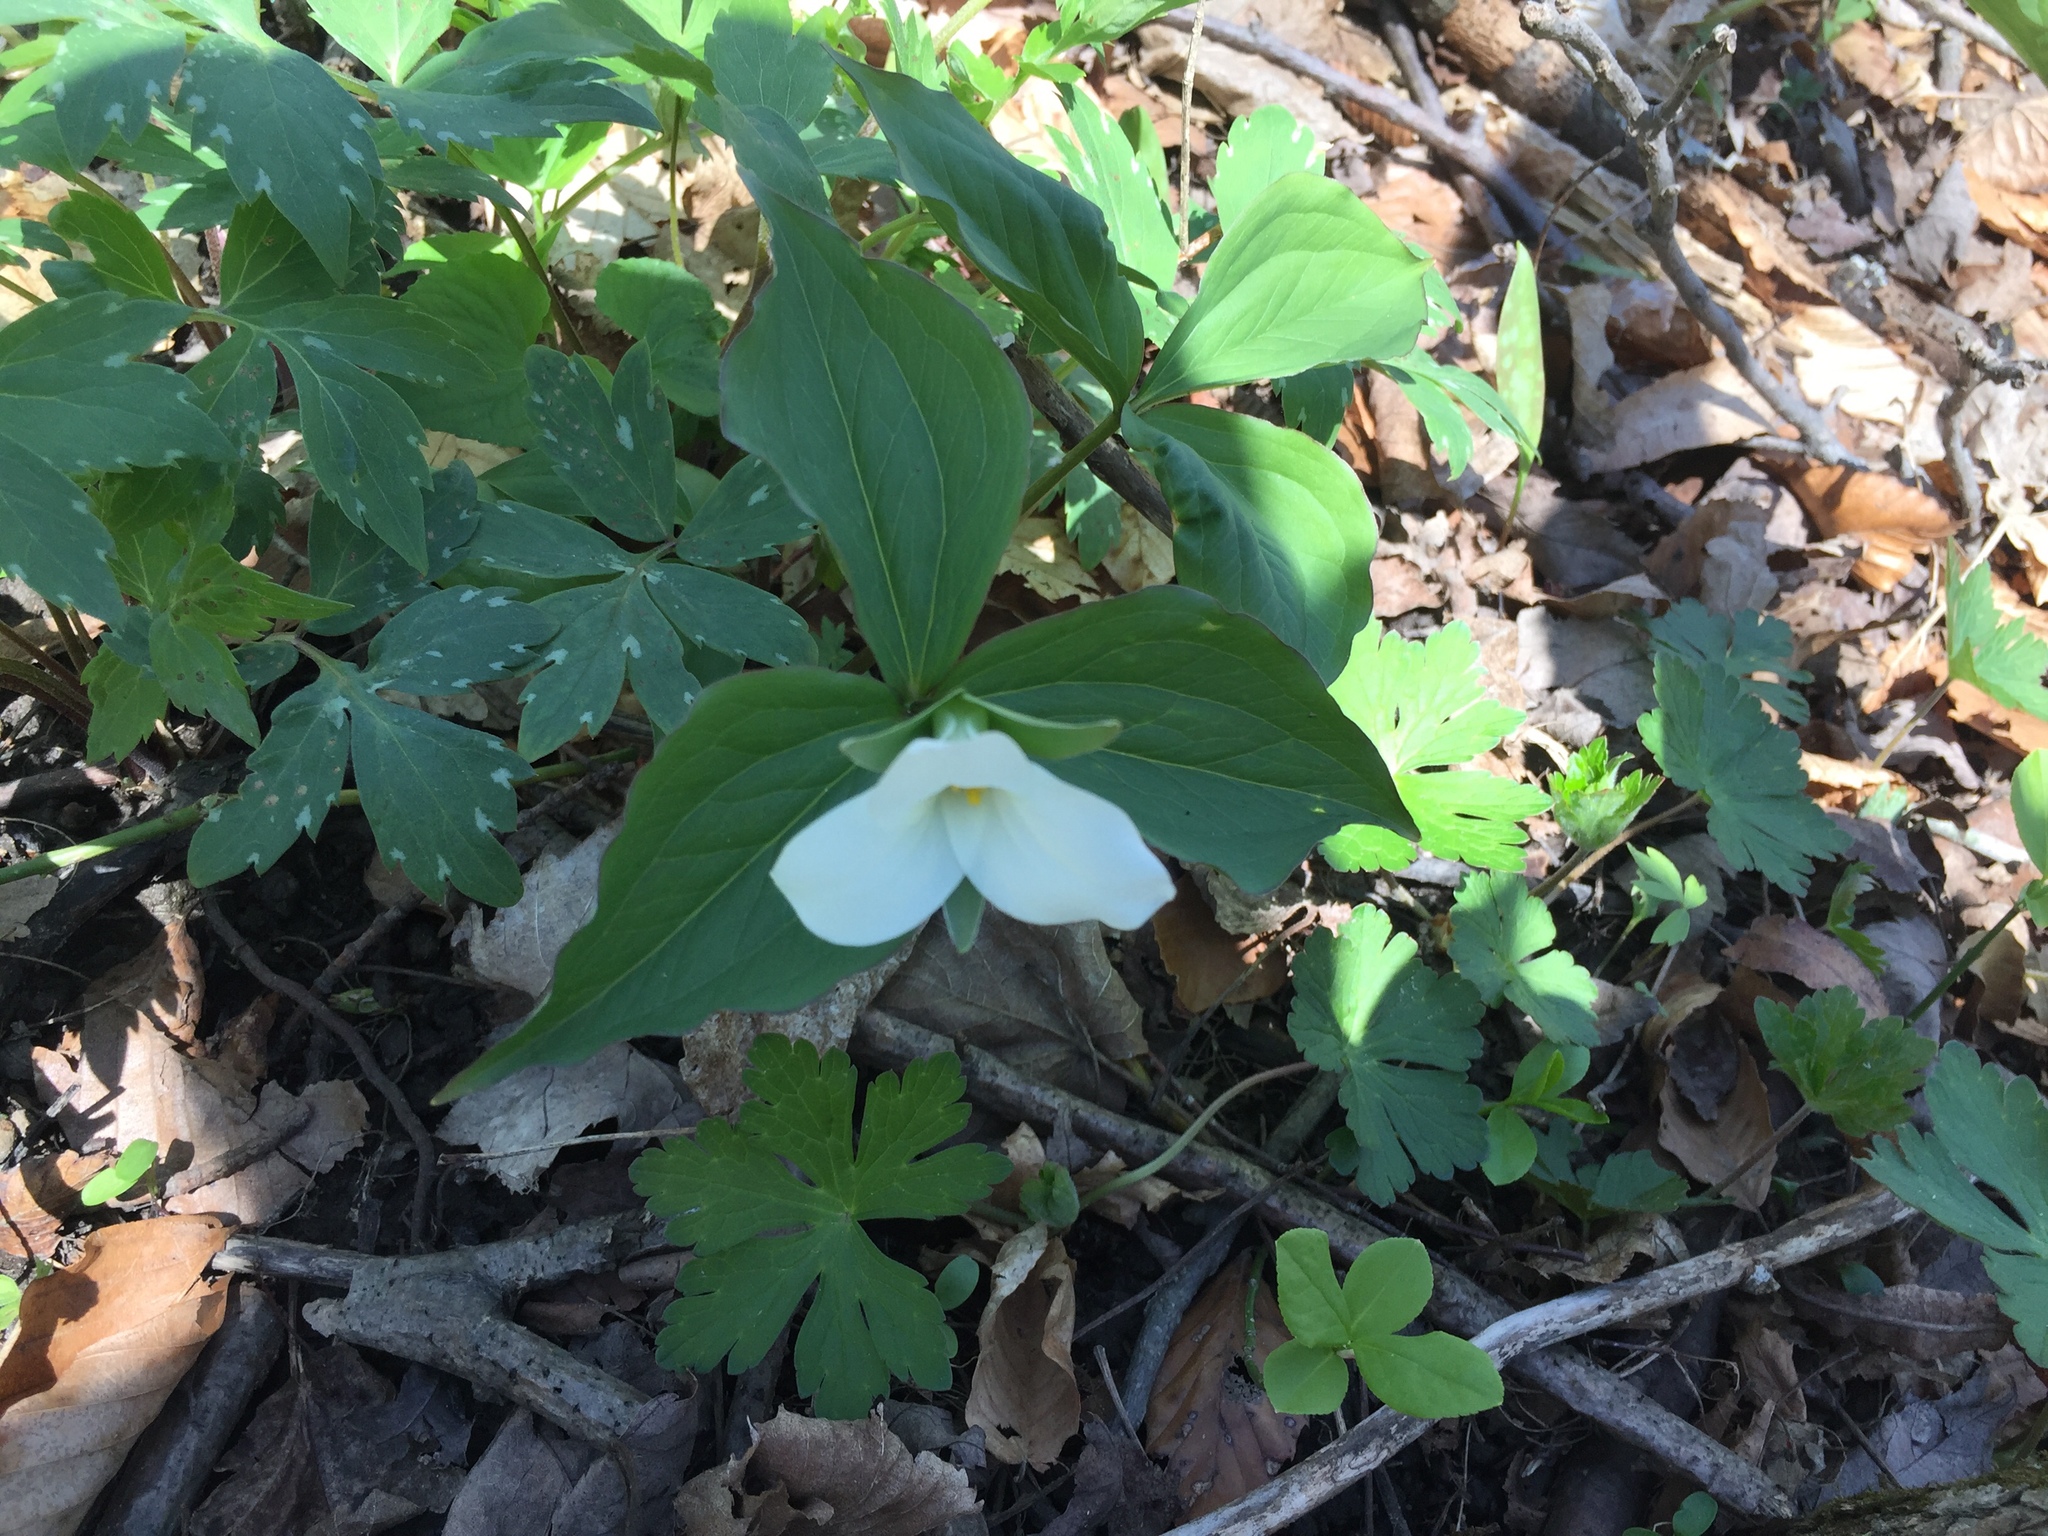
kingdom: Plantae
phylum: Tracheophyta
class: Liliopsida
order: Liliales
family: Melanthiaceae
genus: Trillium
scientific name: Trillium grandiflorum
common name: Great white trillium
